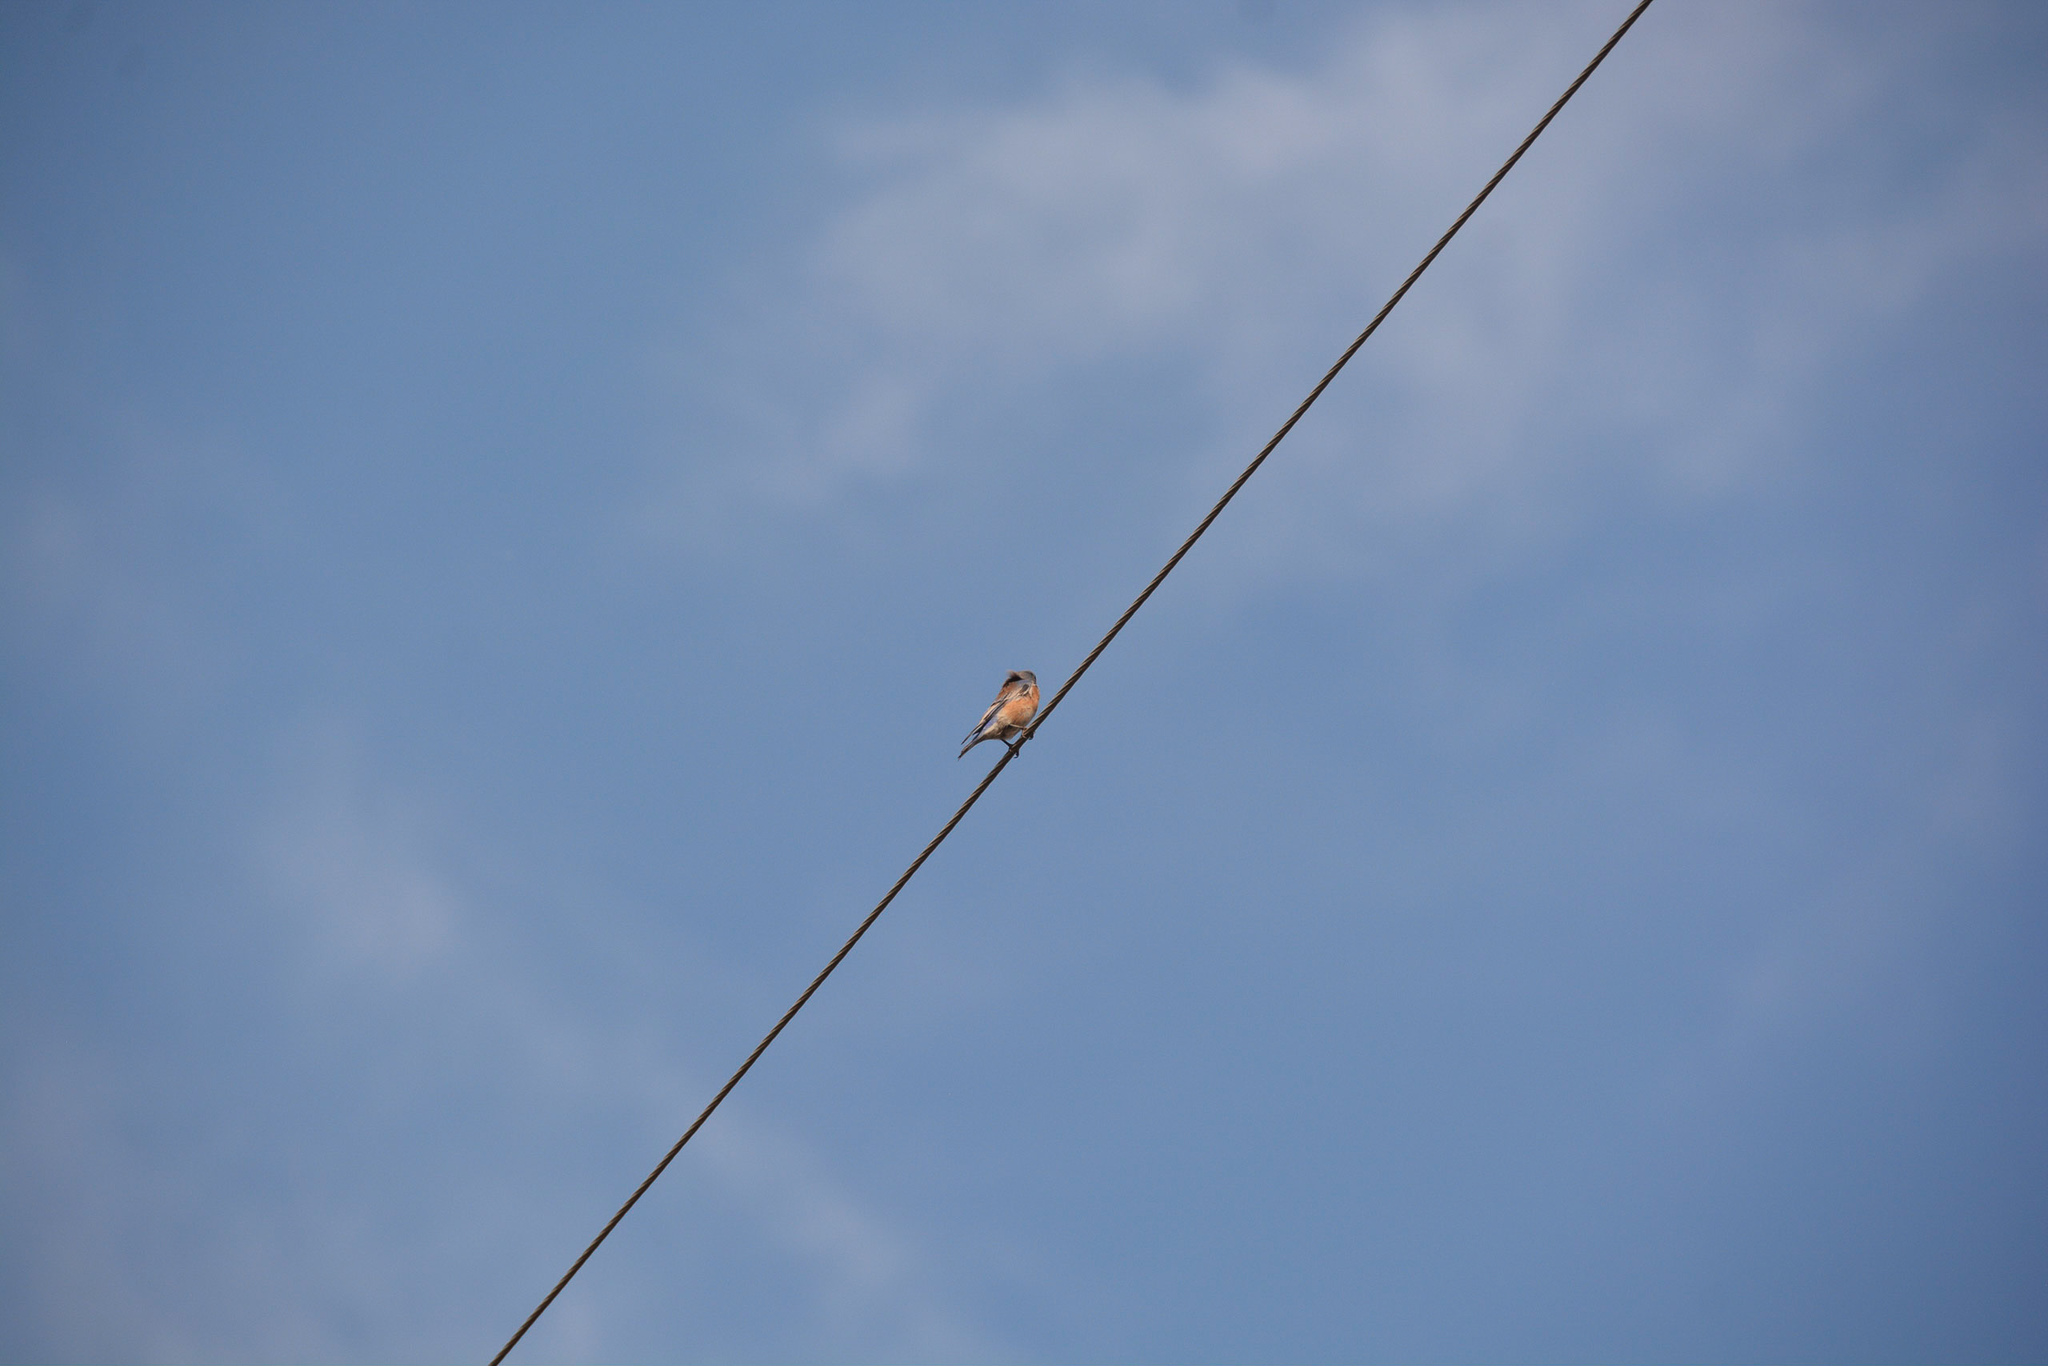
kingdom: Animalia
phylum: Chordata
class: Aves
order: Passeriformes
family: Turdidae
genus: Sialia
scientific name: Sialia mexicana
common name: Western bluebird
